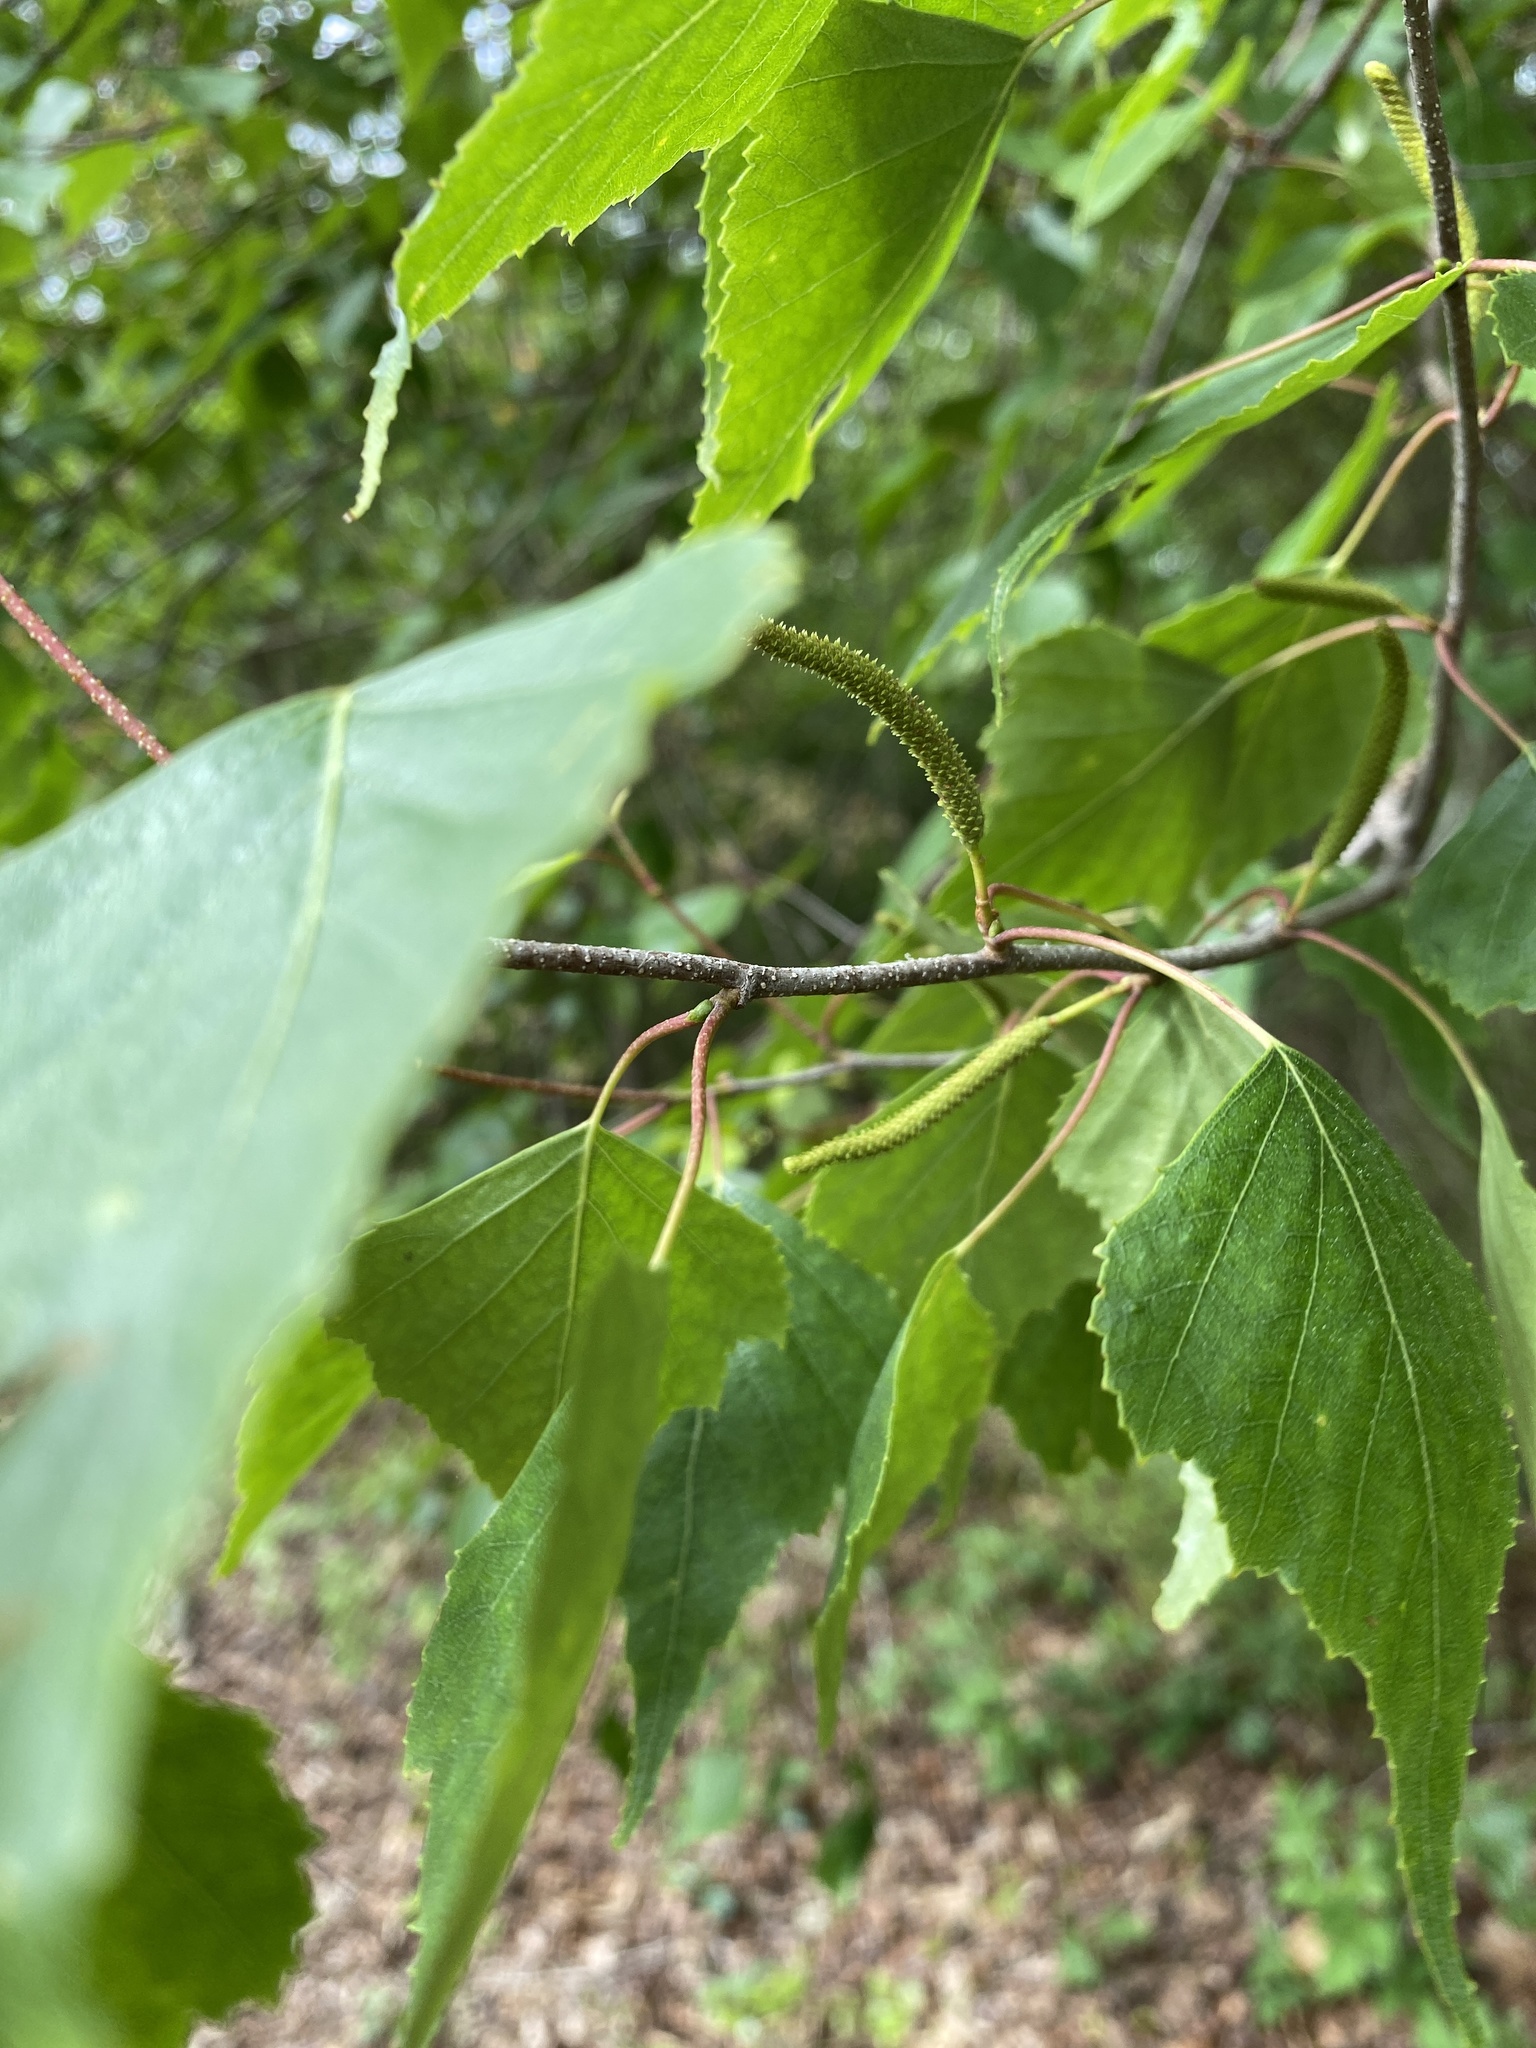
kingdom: Plantae
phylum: Tracheophyta
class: Magnoliopsida
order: Fagales
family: Betulaceae
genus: Betula
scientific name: Betula populifolia
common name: Fire birch
